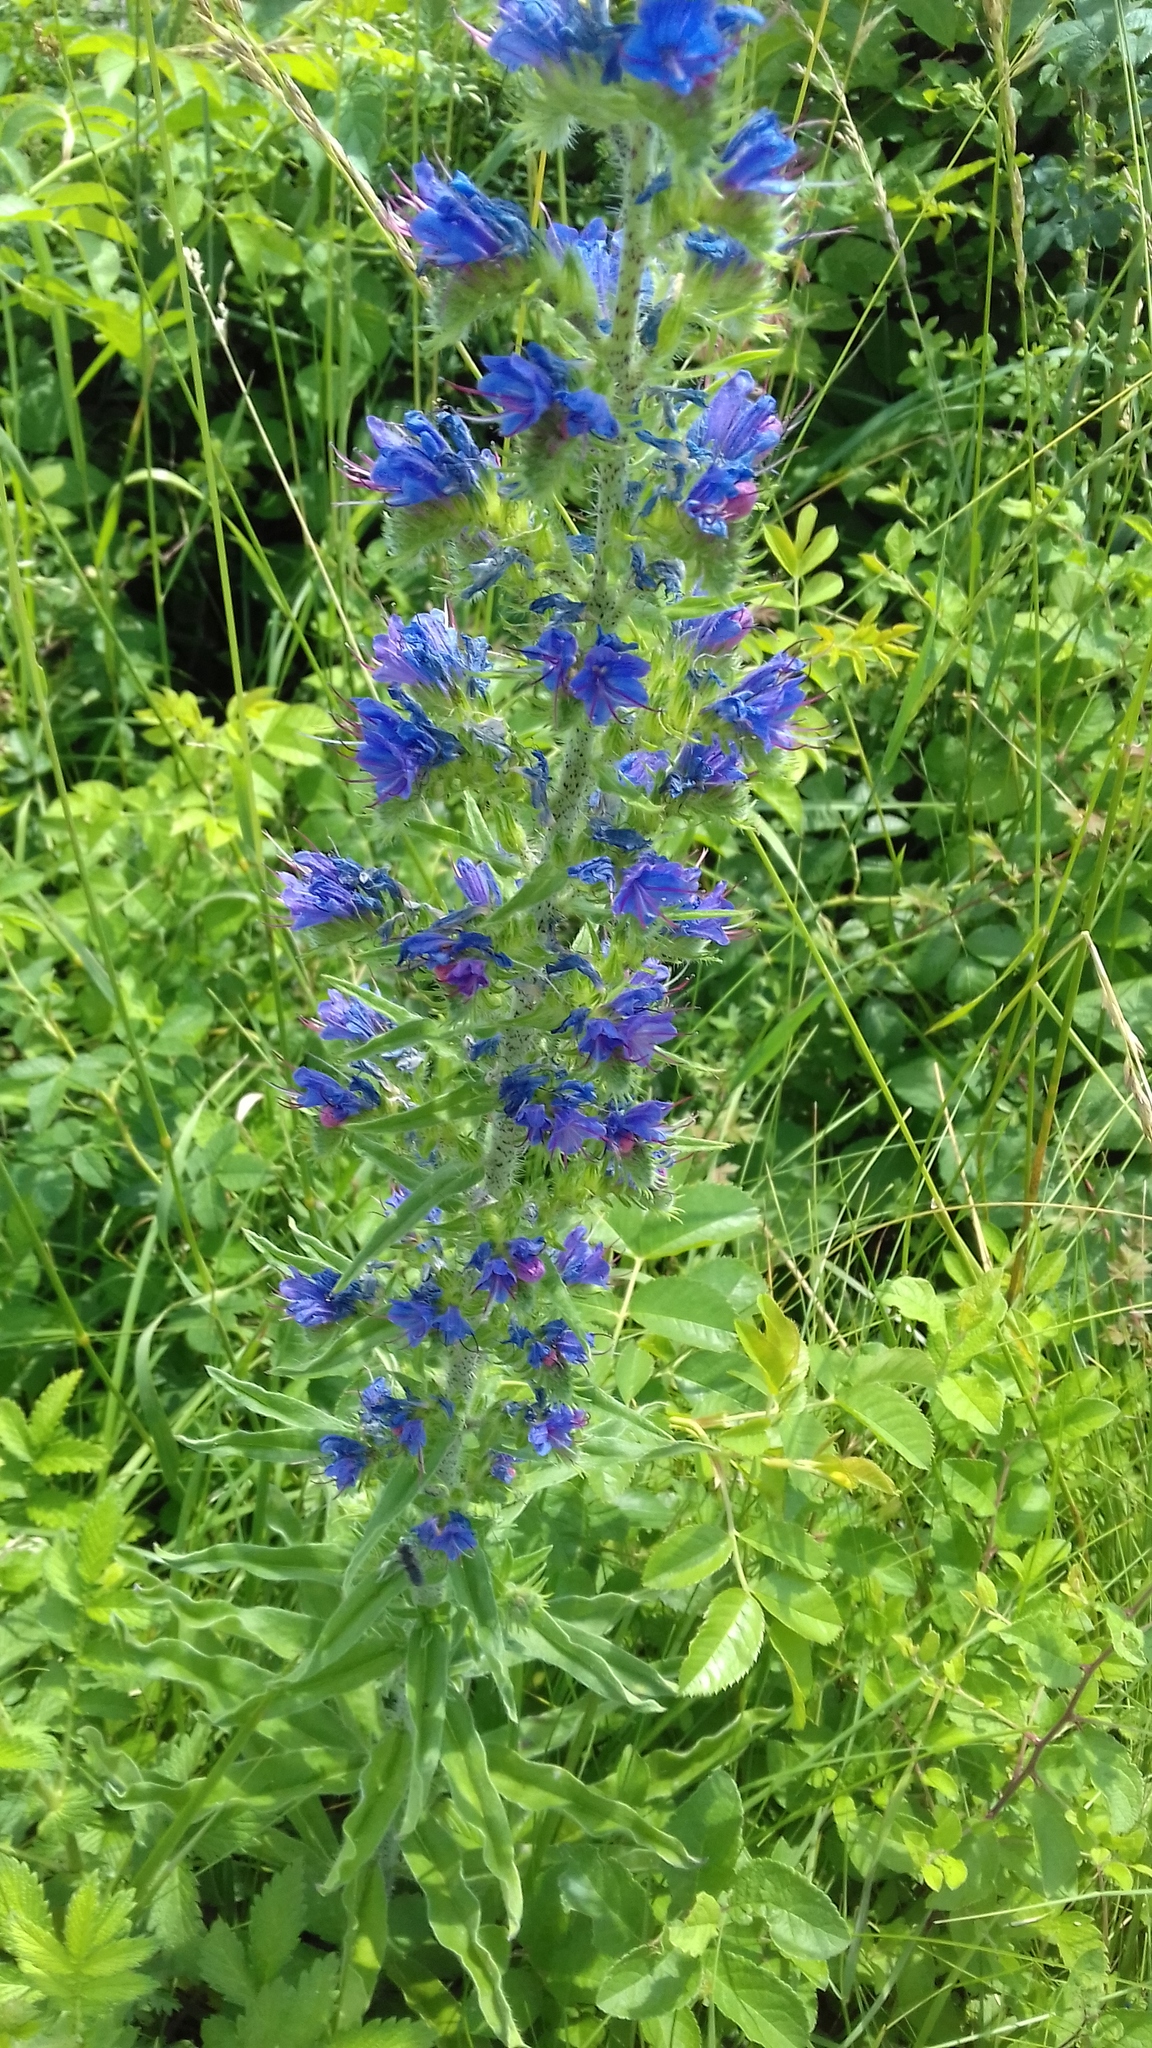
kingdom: Plantae
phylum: Tracheophyta
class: Magnoliopsida
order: Boraginales
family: Boraginaceae
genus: Echium
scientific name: Echium vulgare
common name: Common viper's bugloss
